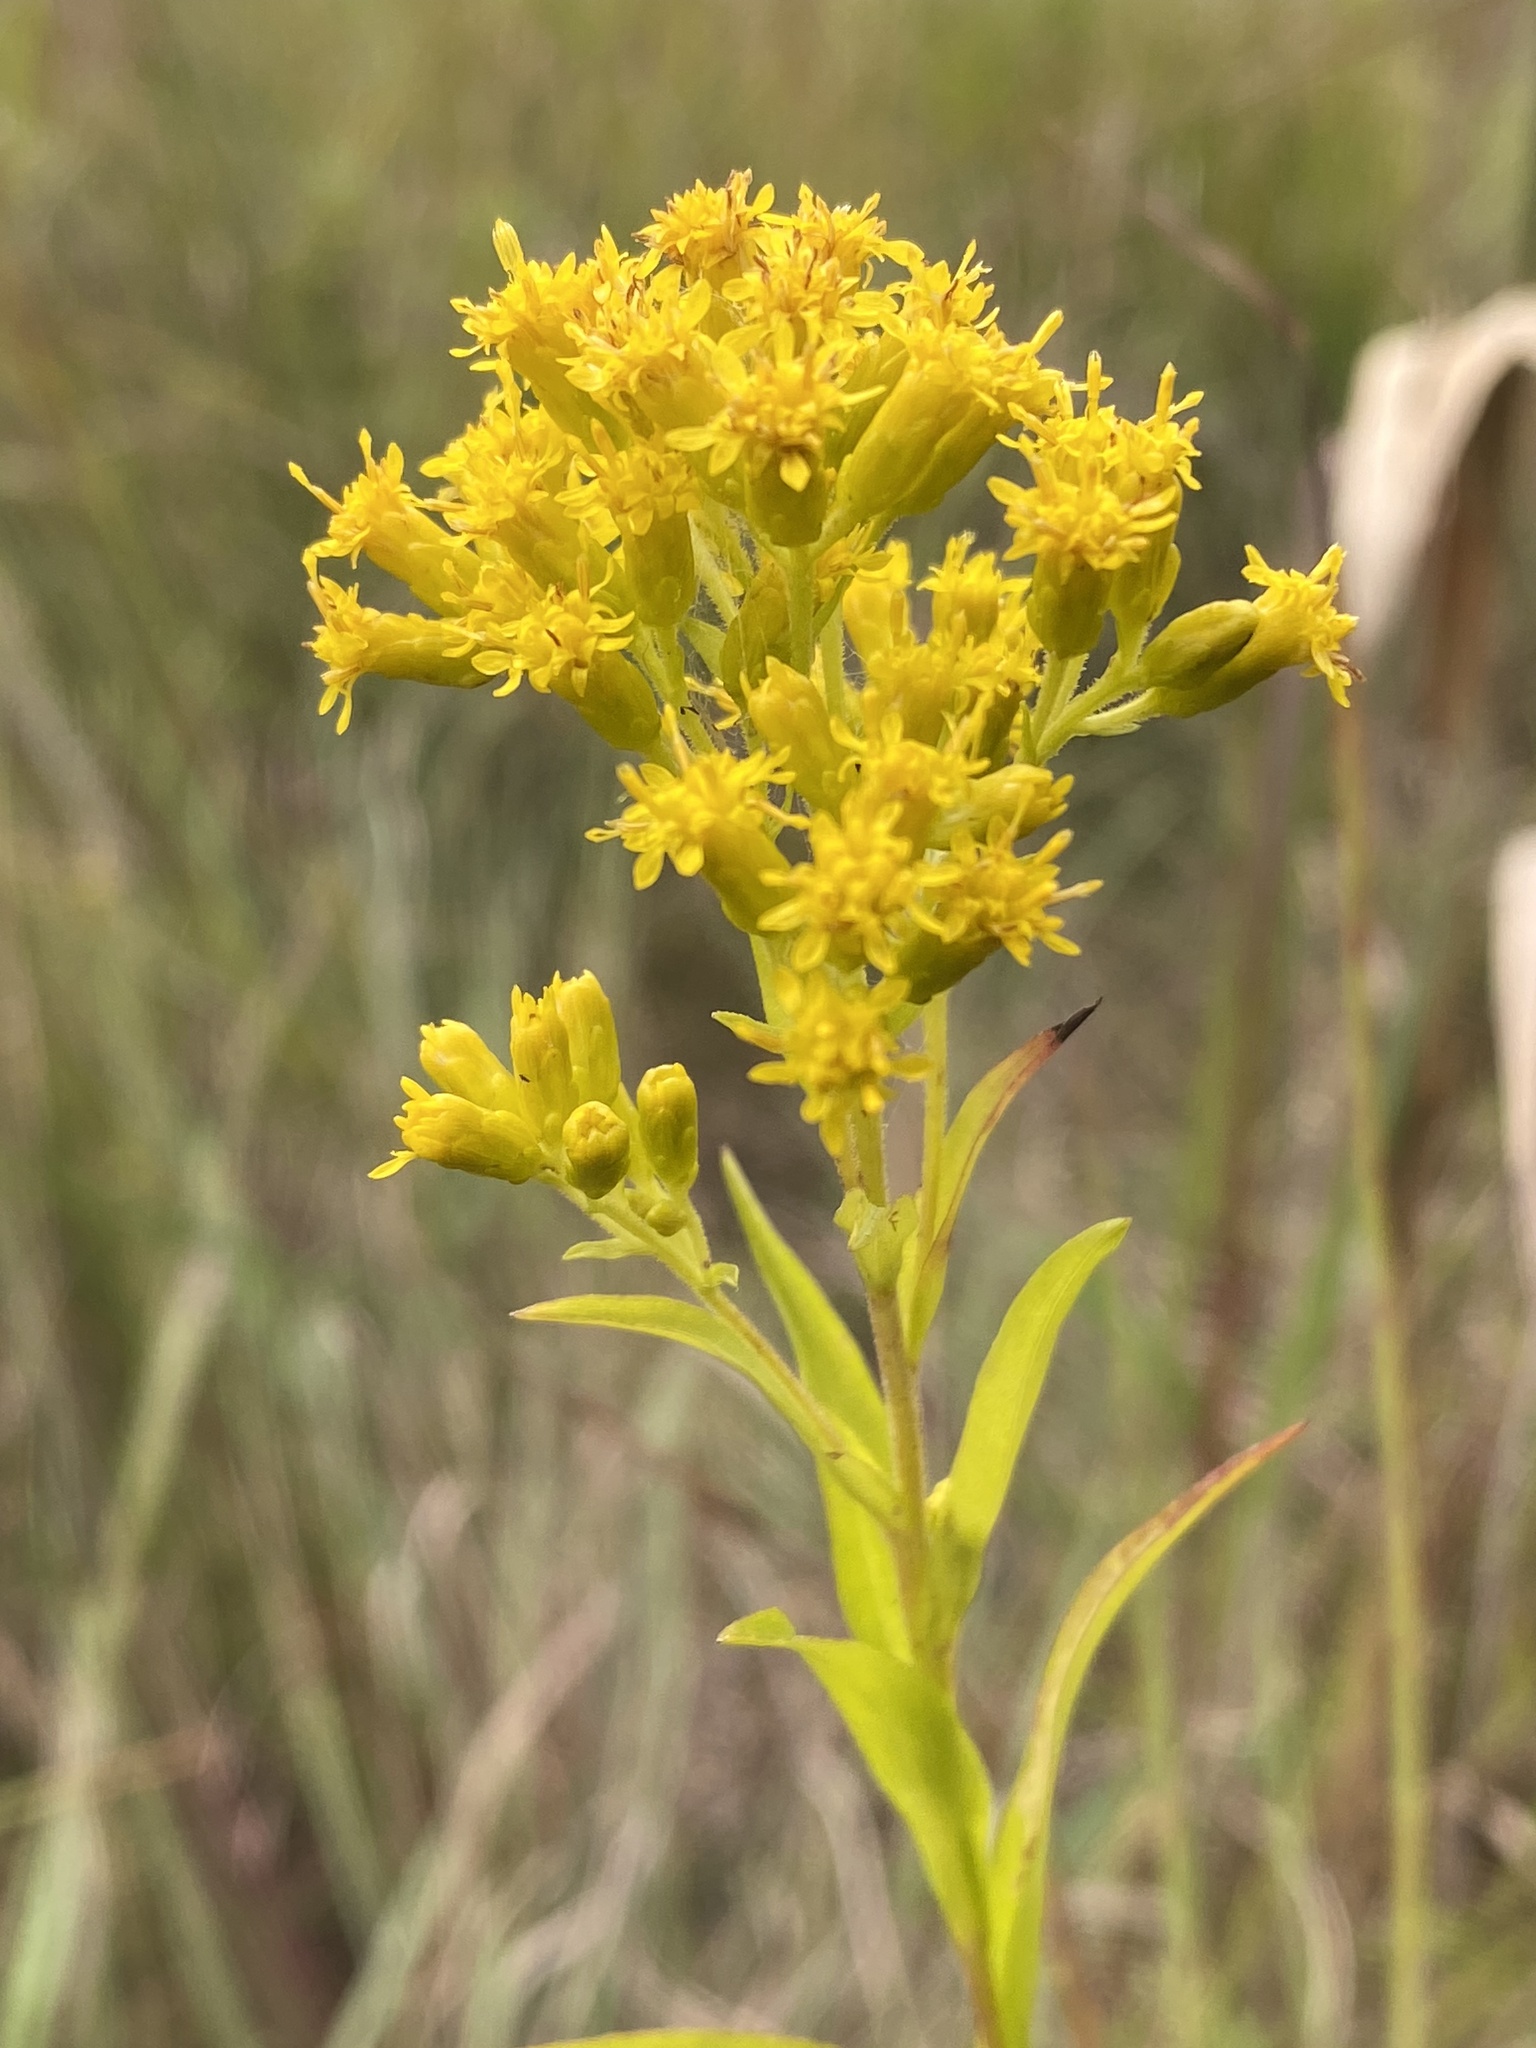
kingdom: Plantae
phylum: Tracheophyta
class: Magnoliopsida
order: Asterales
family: Asteraceae
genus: Solidago
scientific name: Solidago riddellii
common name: Riddell's goldenrod
